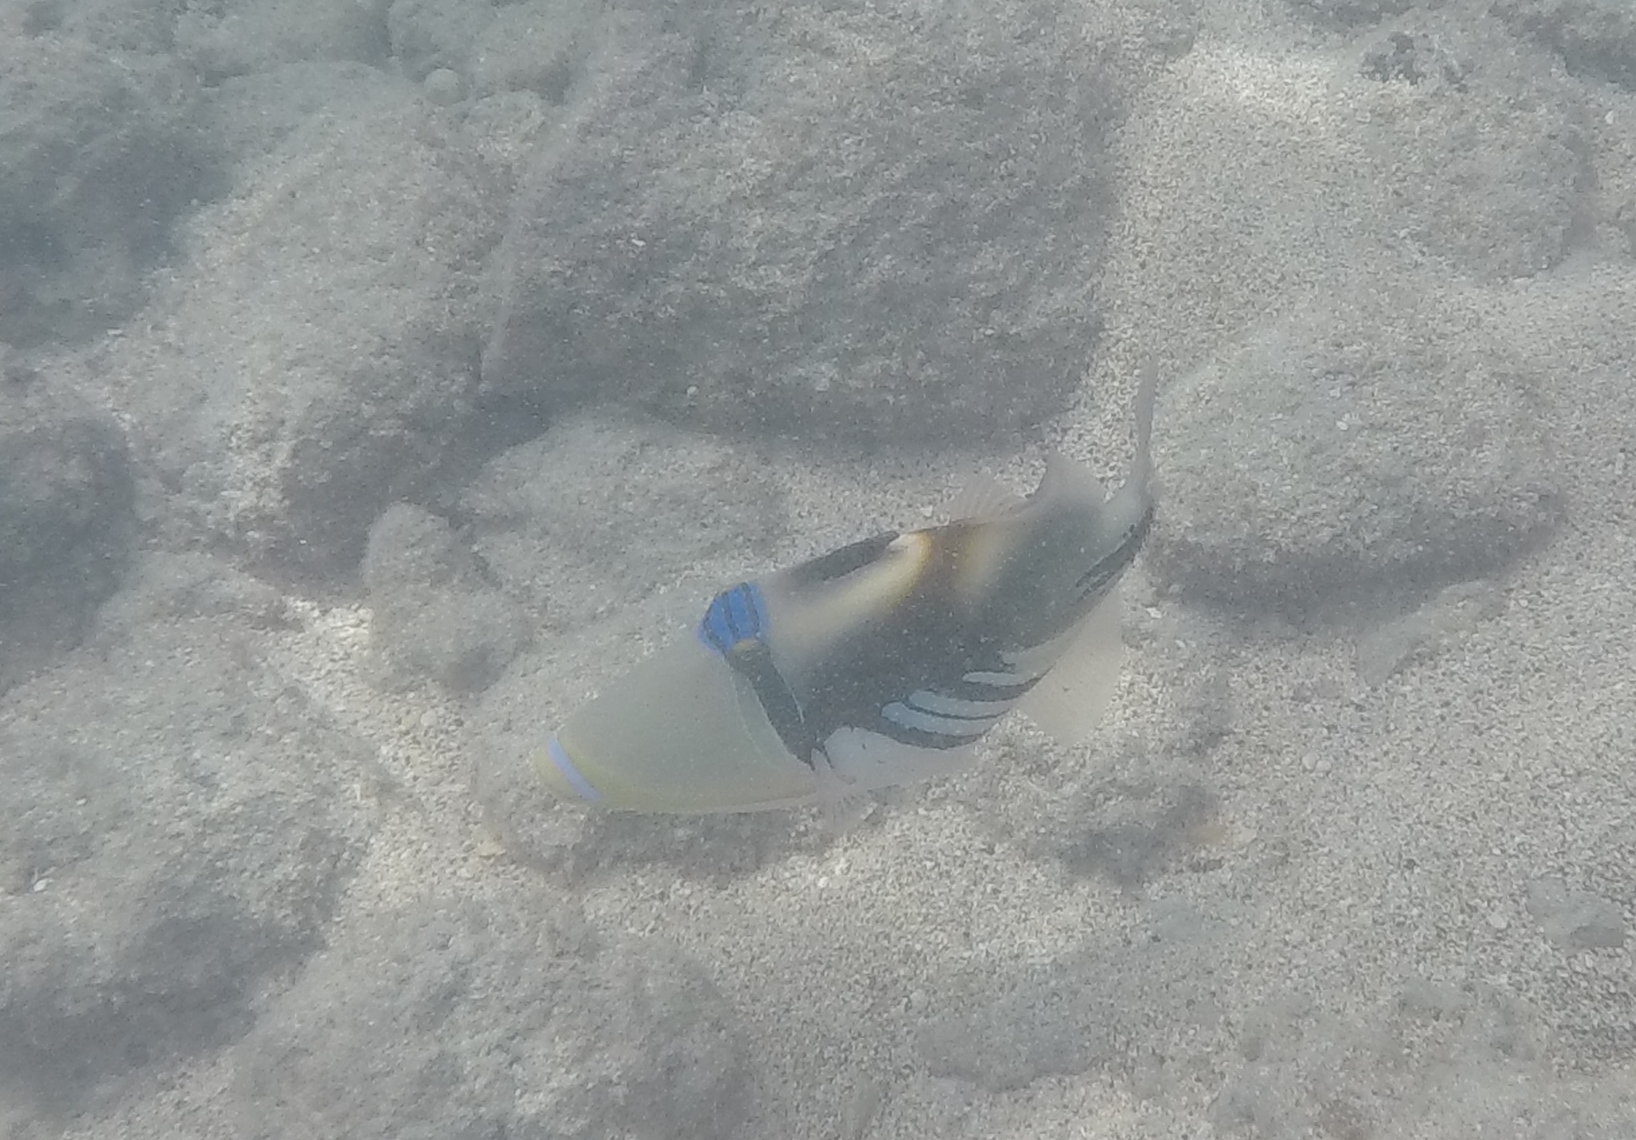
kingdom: Animalia
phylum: Chordata
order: Tetraodontiformes
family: Balistidae
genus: Rhinecanthus
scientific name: Rhinecanthus aculeatus
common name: White-banded triggerfish
